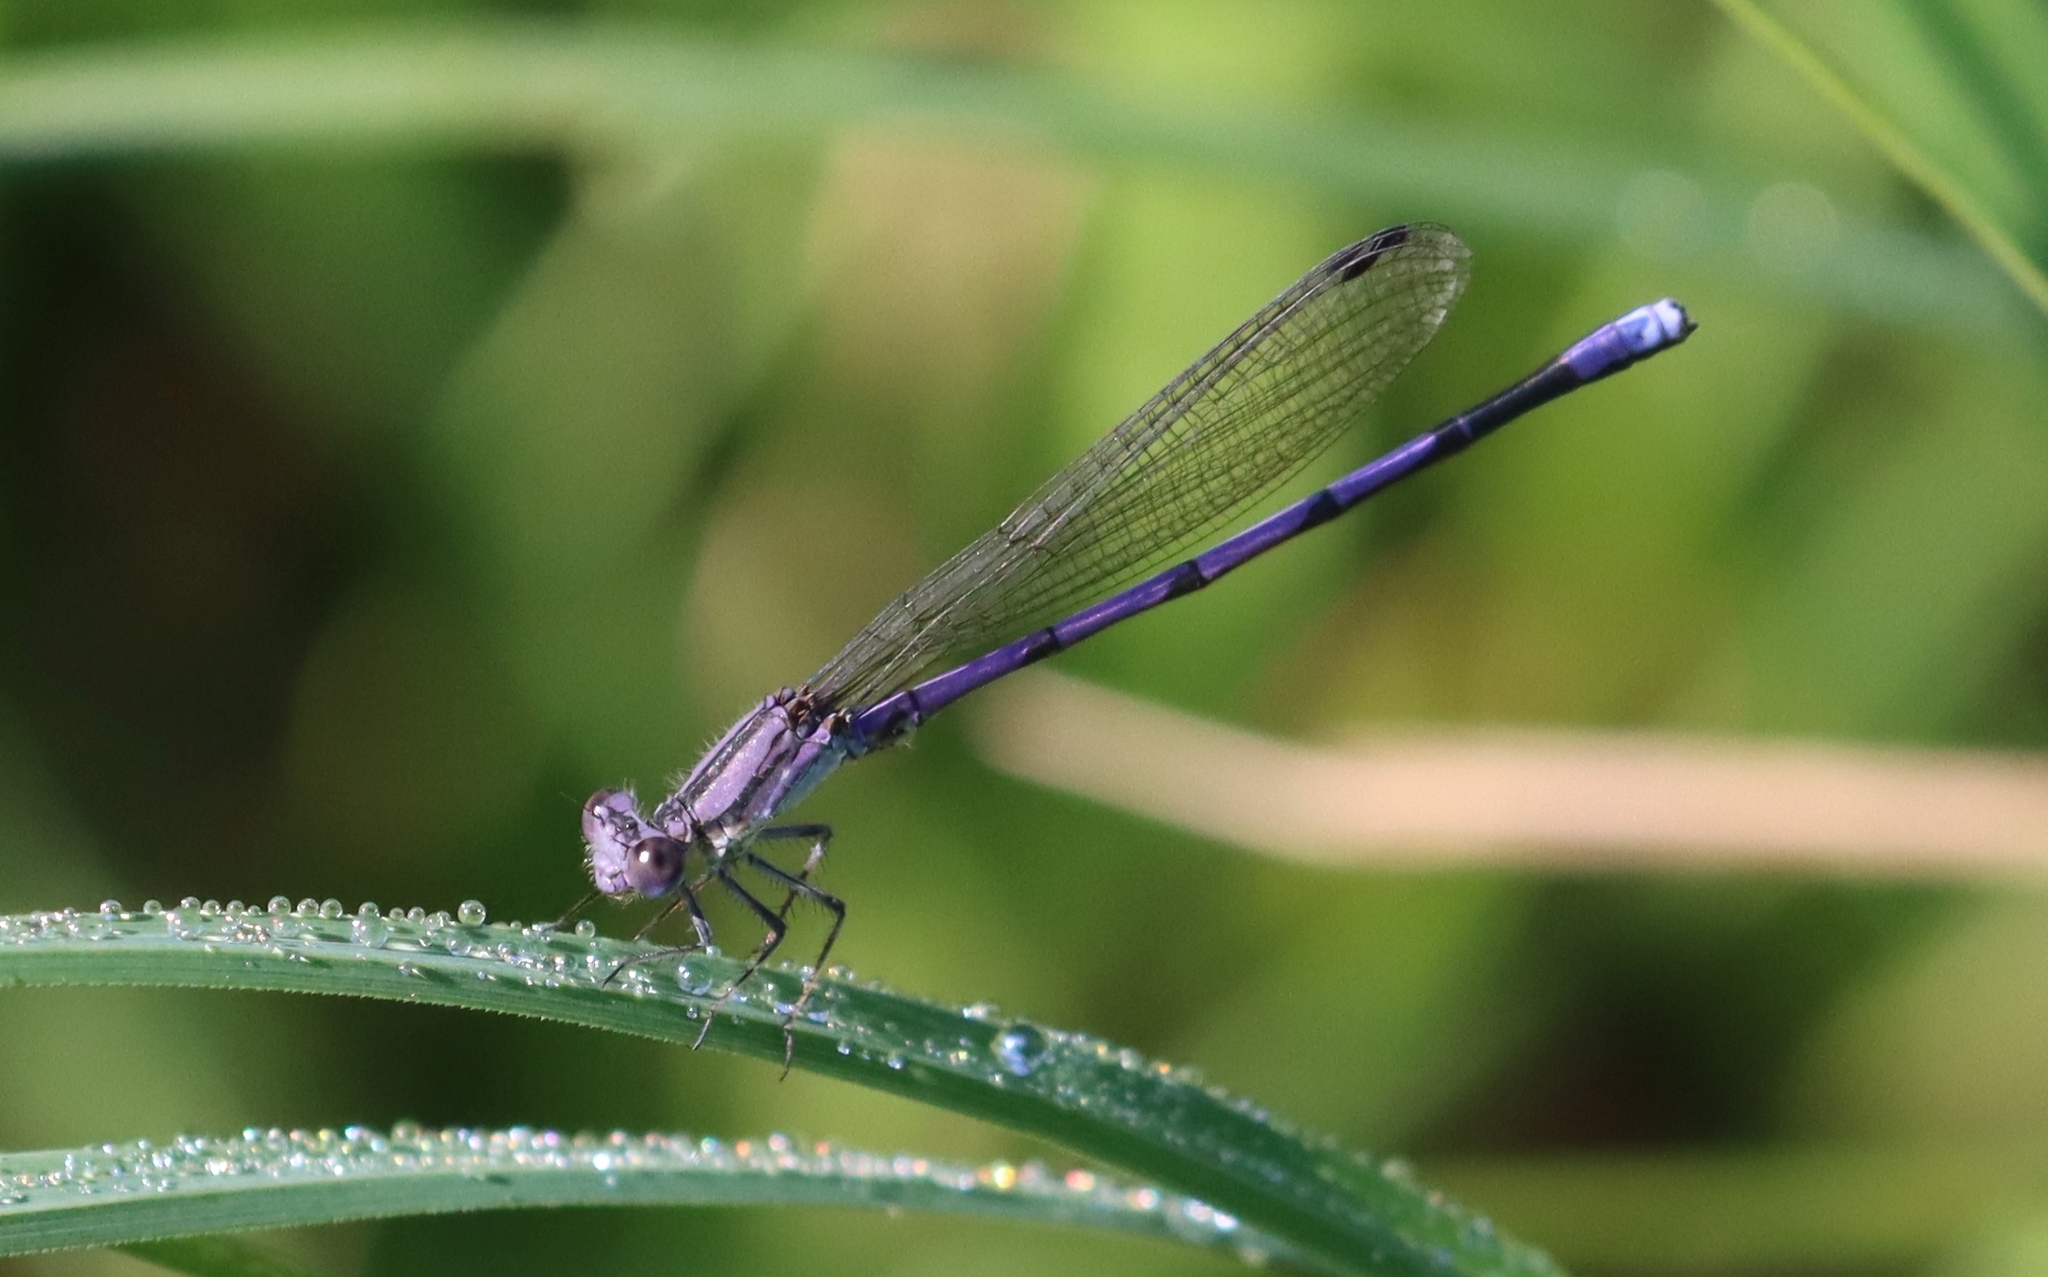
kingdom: Animalia
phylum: Arthropoda
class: Insecta
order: Odonata
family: Coenagrionidae
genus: Argia
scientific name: Argia fumipennis
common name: Variable dancer
